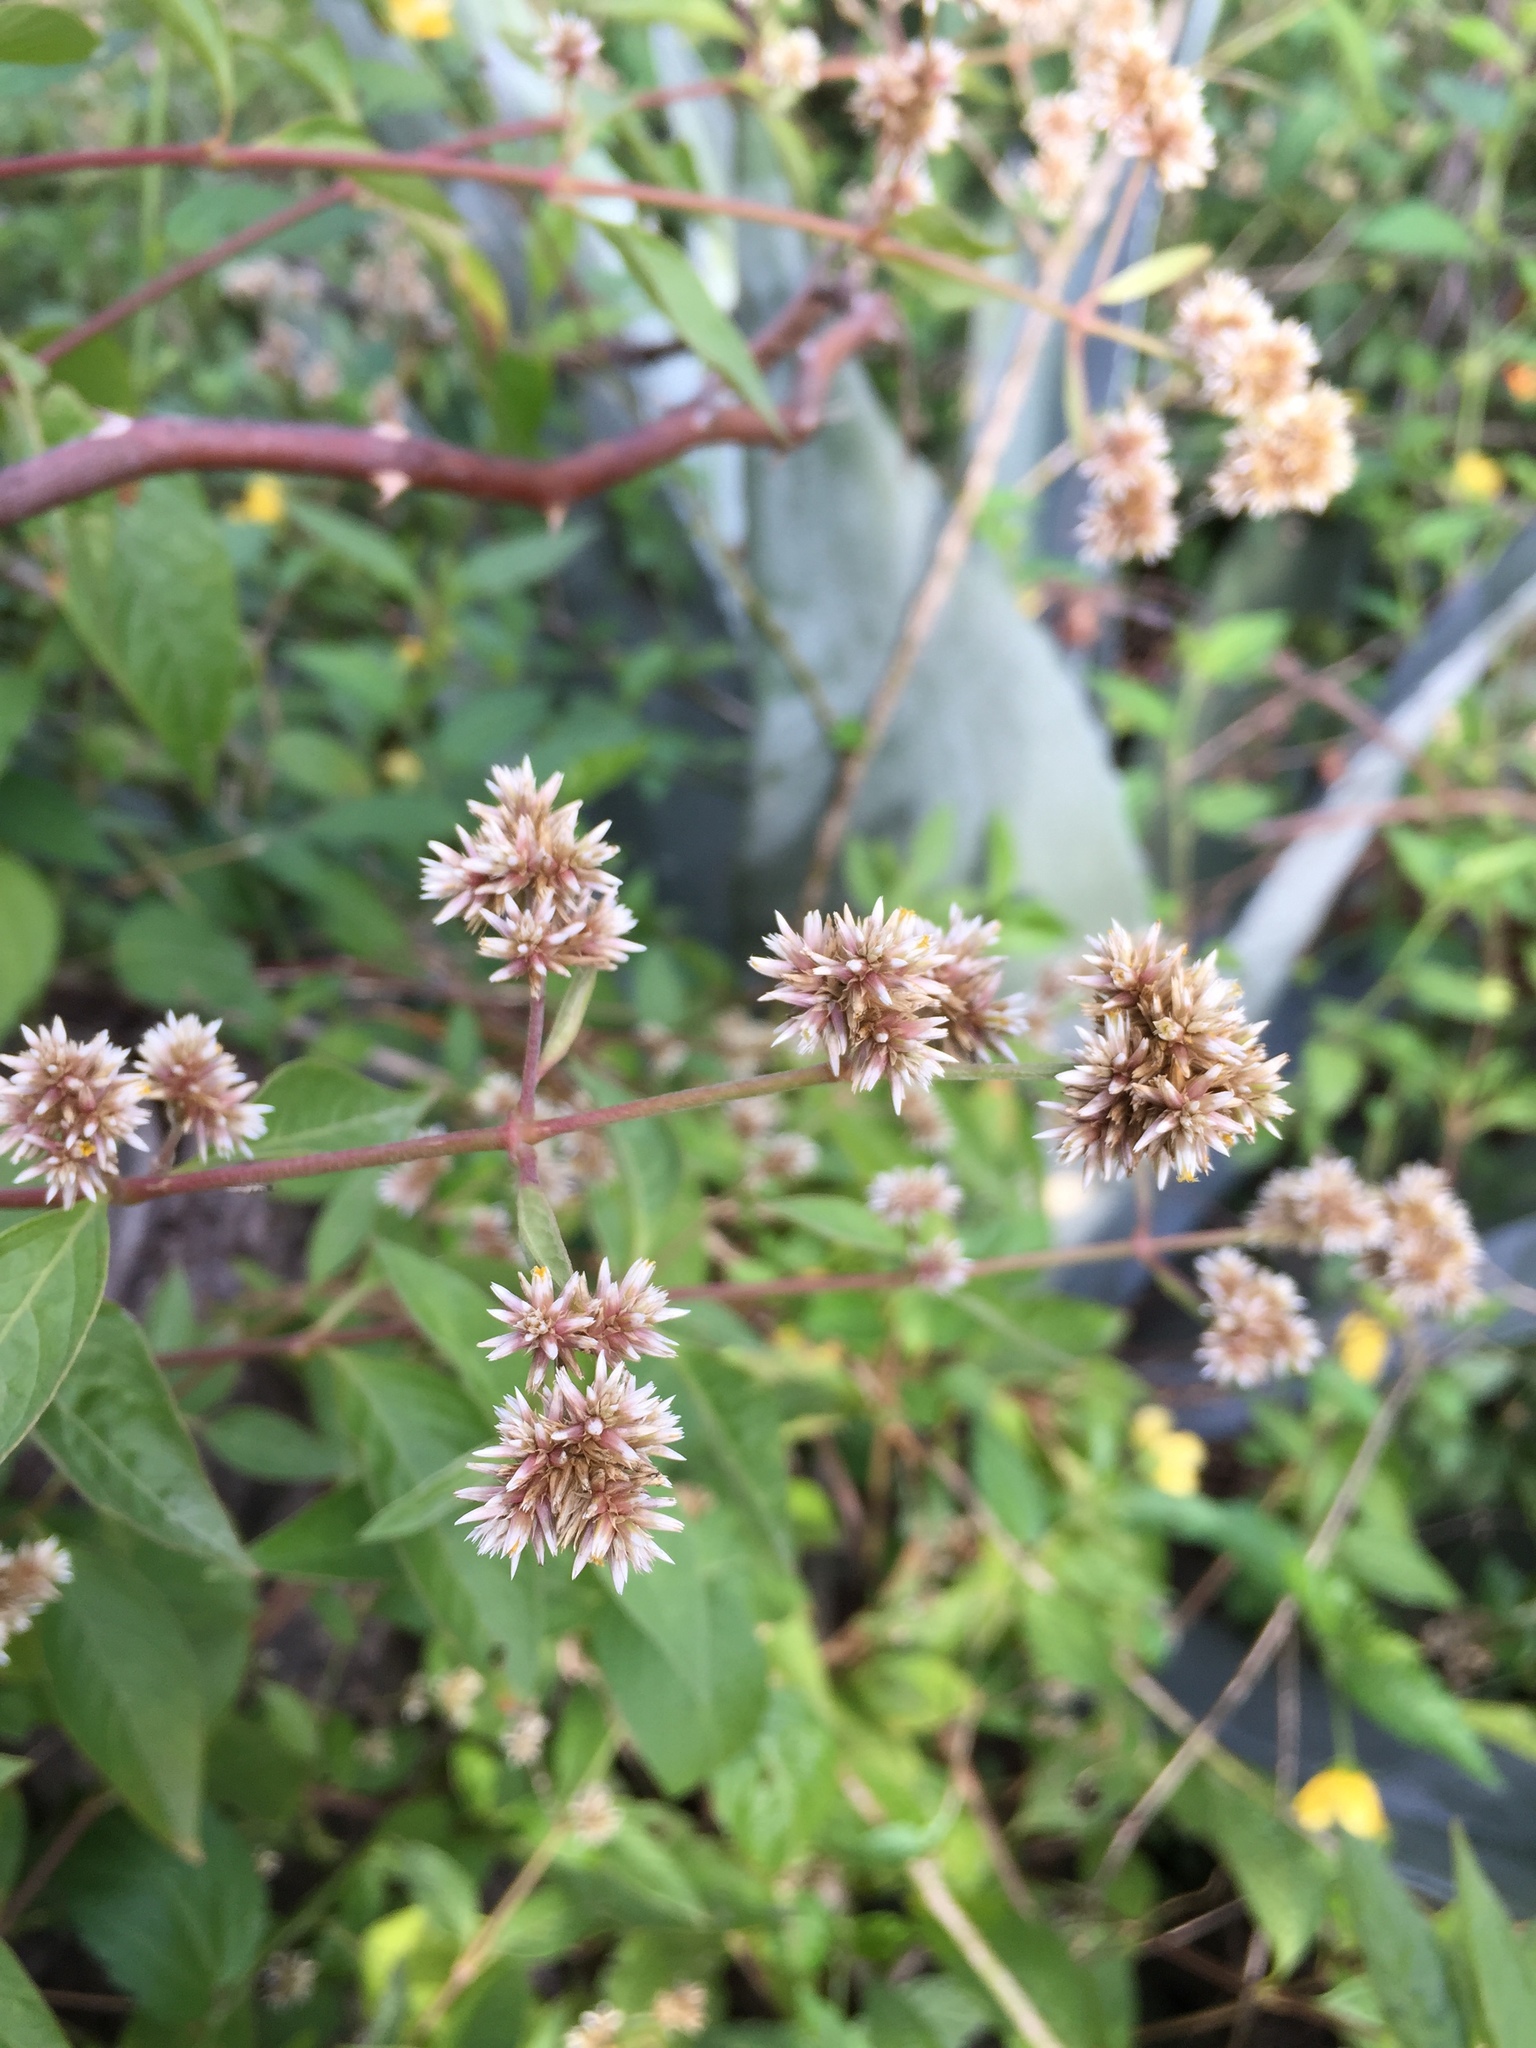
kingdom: Plantae
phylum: Tracheophyta
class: Magnoliopsida
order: Caryophyllales
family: Amaranthaceae
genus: Alternanthera
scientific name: Alternanthera porrigens
